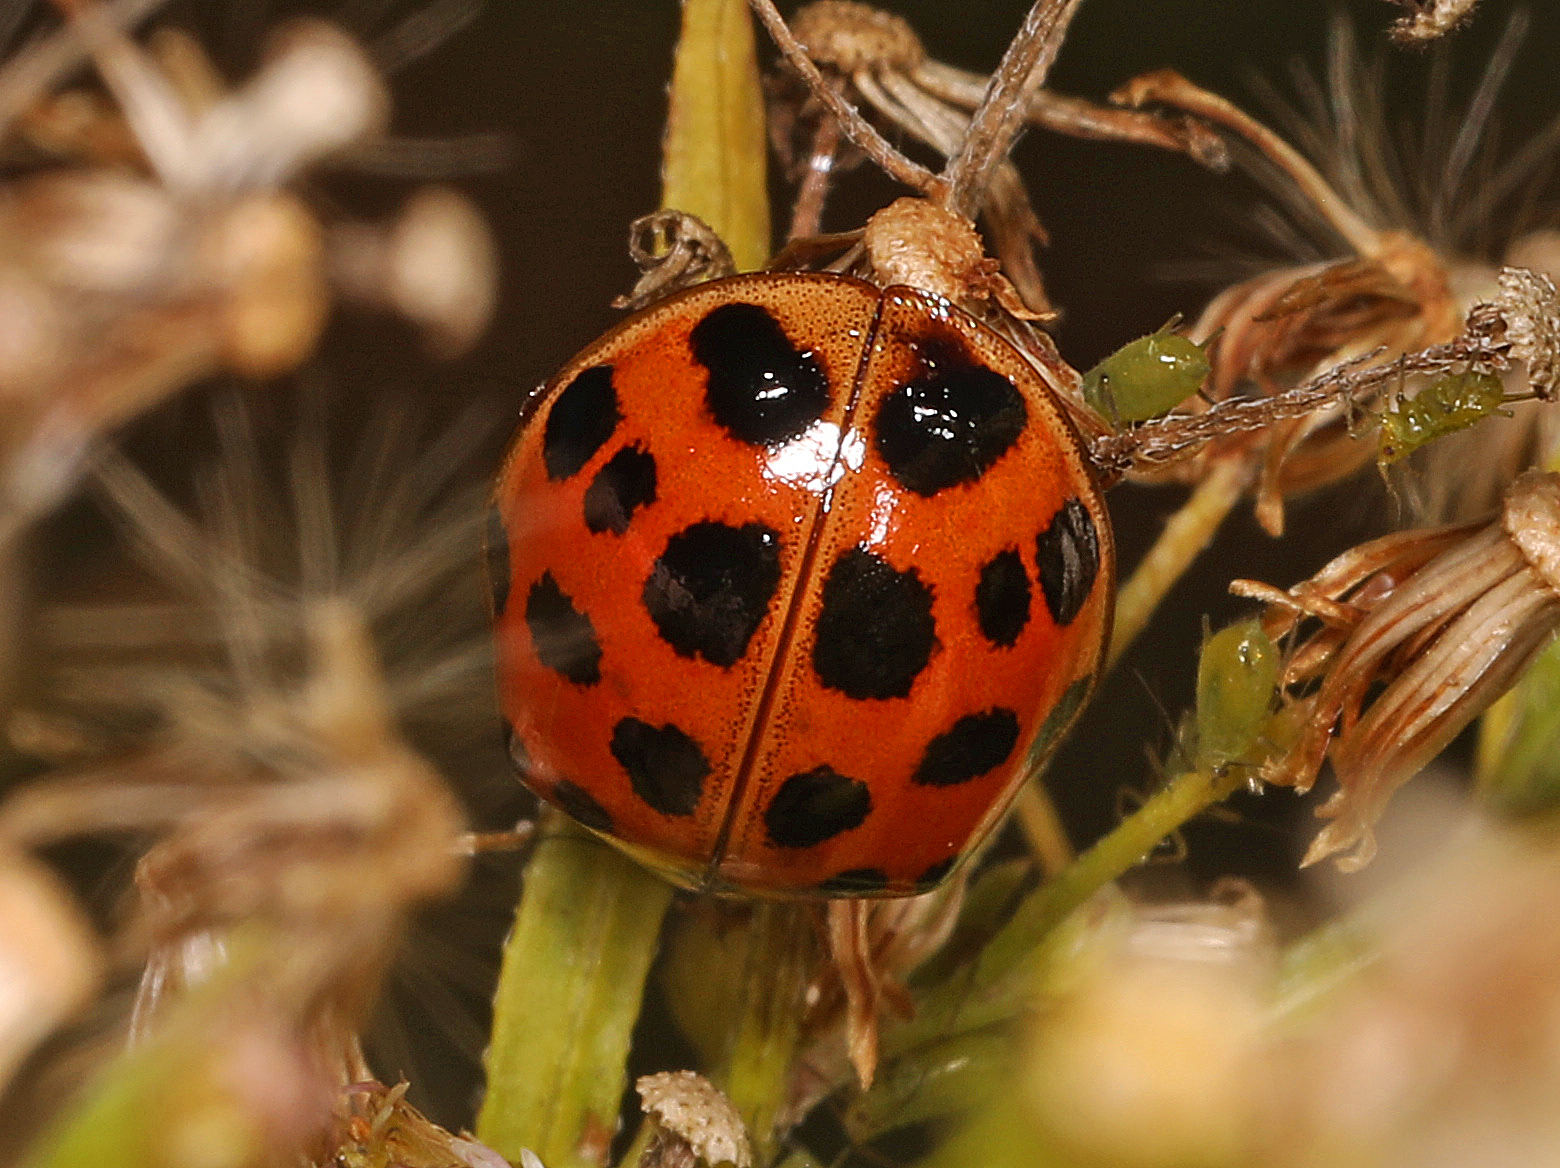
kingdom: Animalia
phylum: Arthropoda
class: Insecta
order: Coleoptera
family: Coccinellidae
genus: Harmonia
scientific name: Harmonia axyridis
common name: Harlequin ladybird
